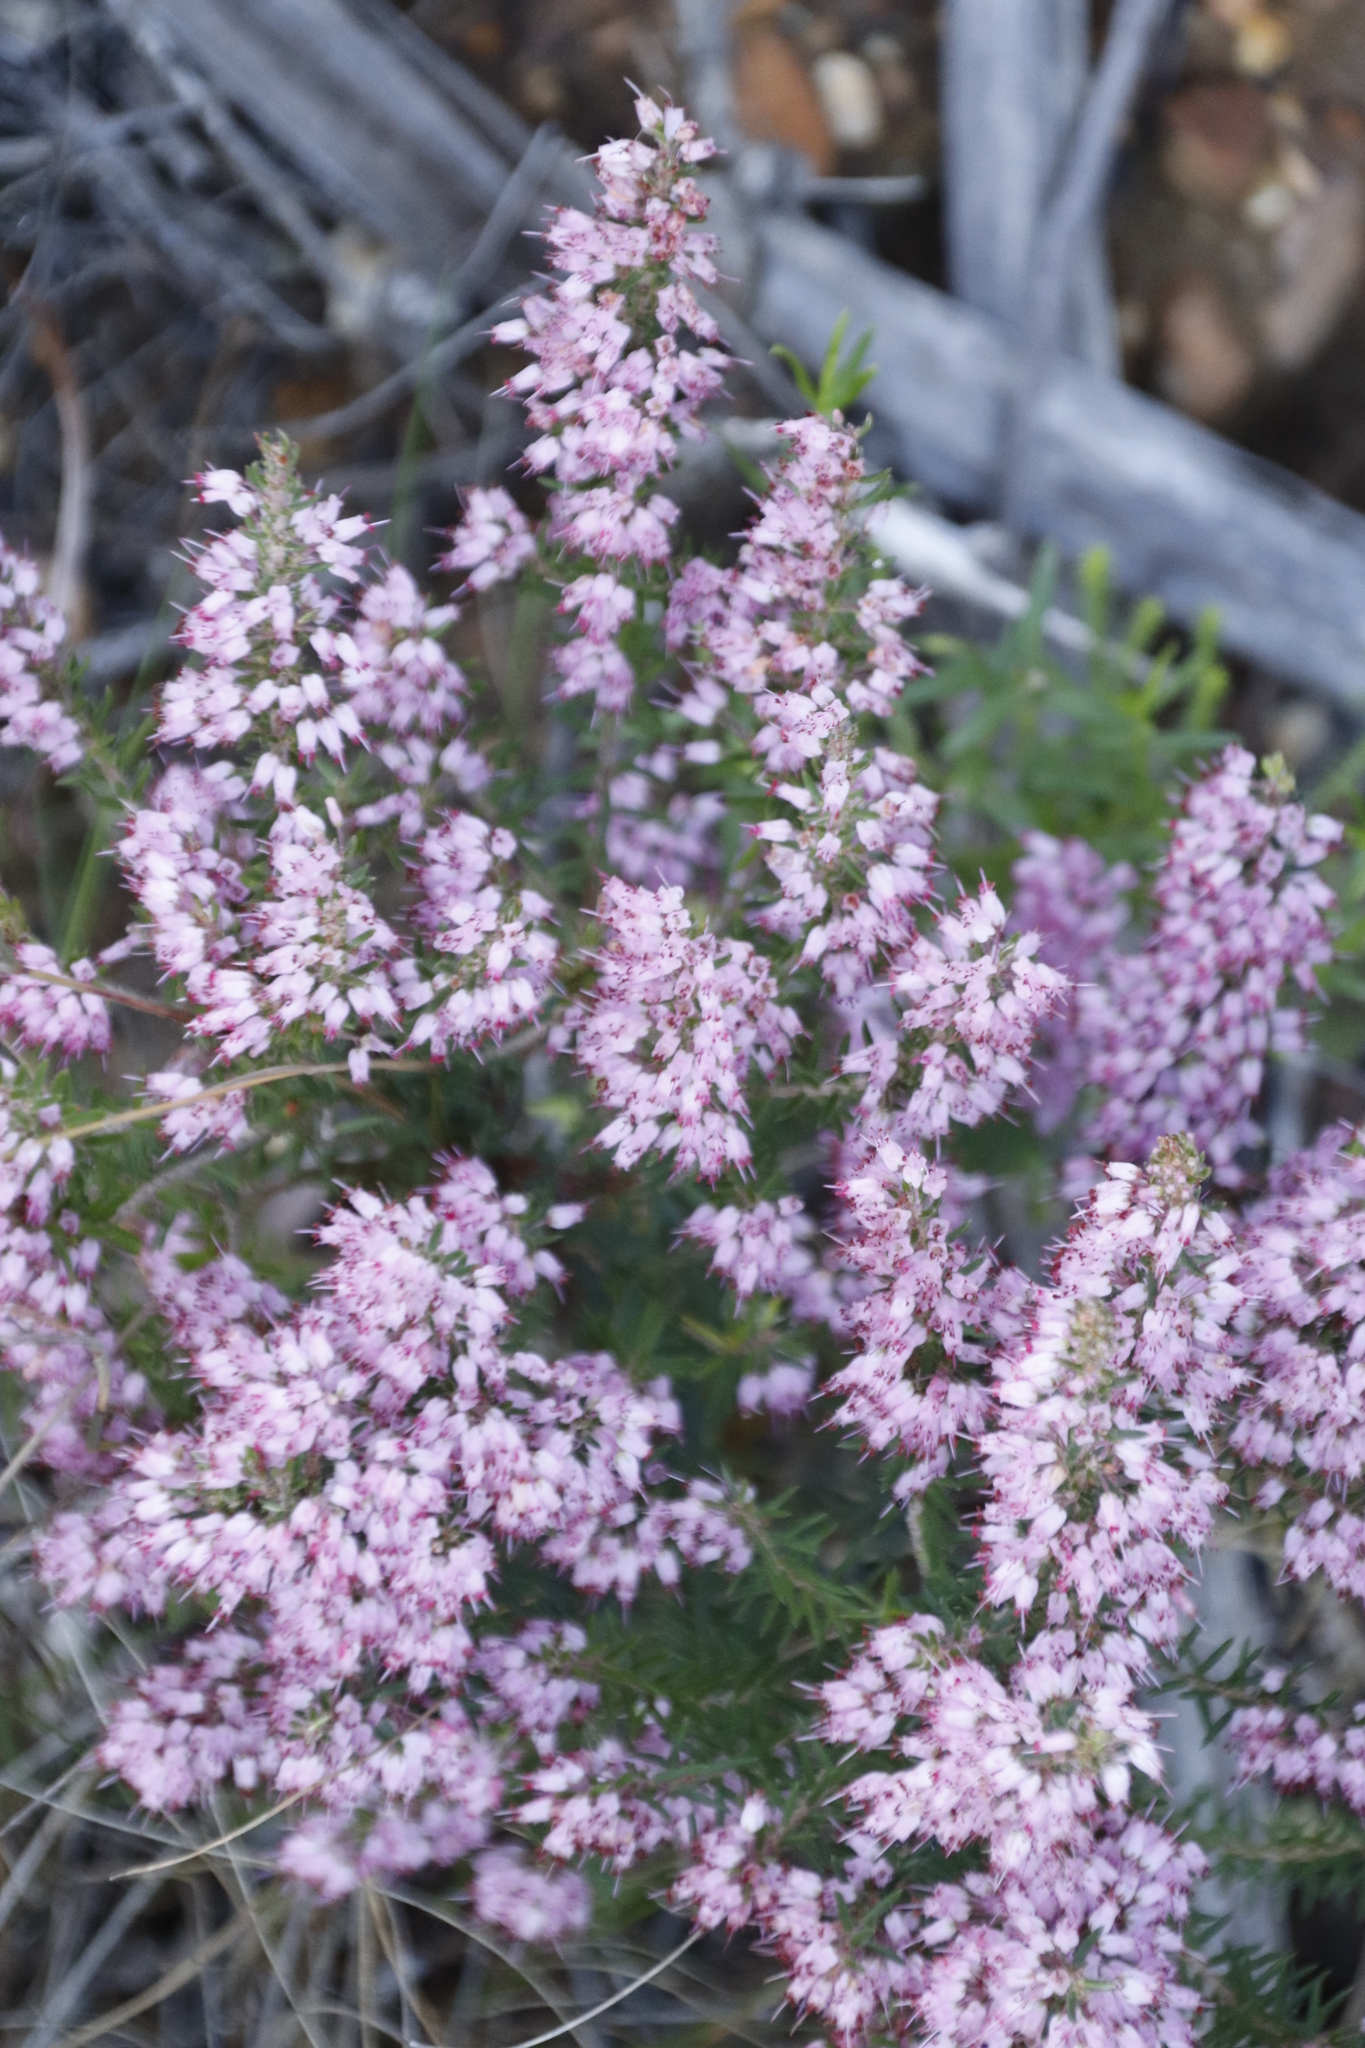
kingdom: Plantae
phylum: Tracheophyta
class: Magnoliopsida
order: Ericales
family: Ericaceae
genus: Erica
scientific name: Erica nudiflora
